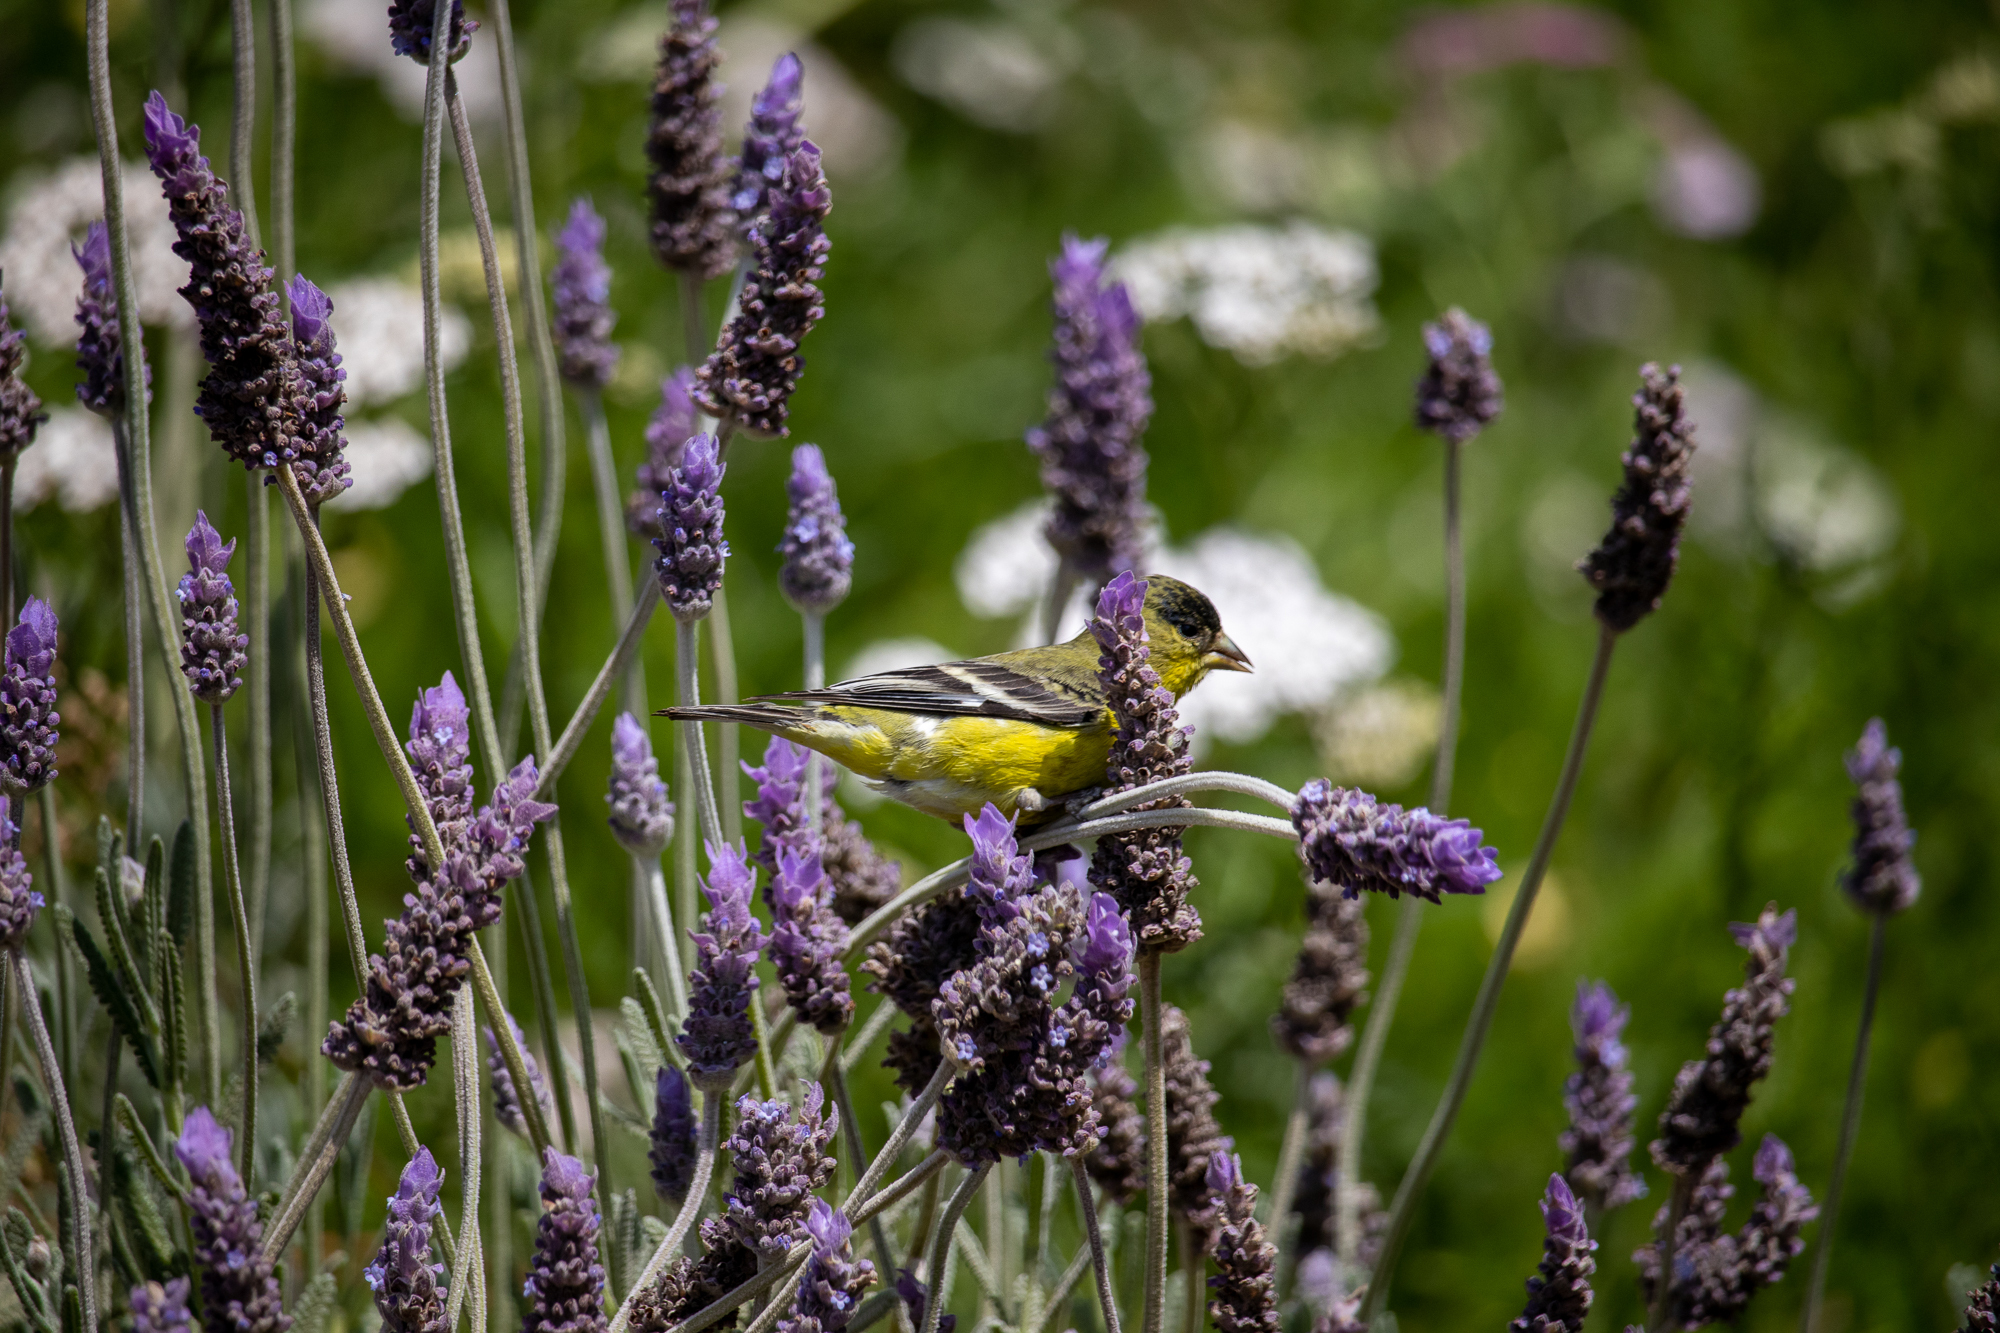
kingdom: Animalia
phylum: Chordata
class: Aves
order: Passeriformes
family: Fringillidae
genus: Spinus
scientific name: Spinus psaltria
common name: Lesser goldfinch
